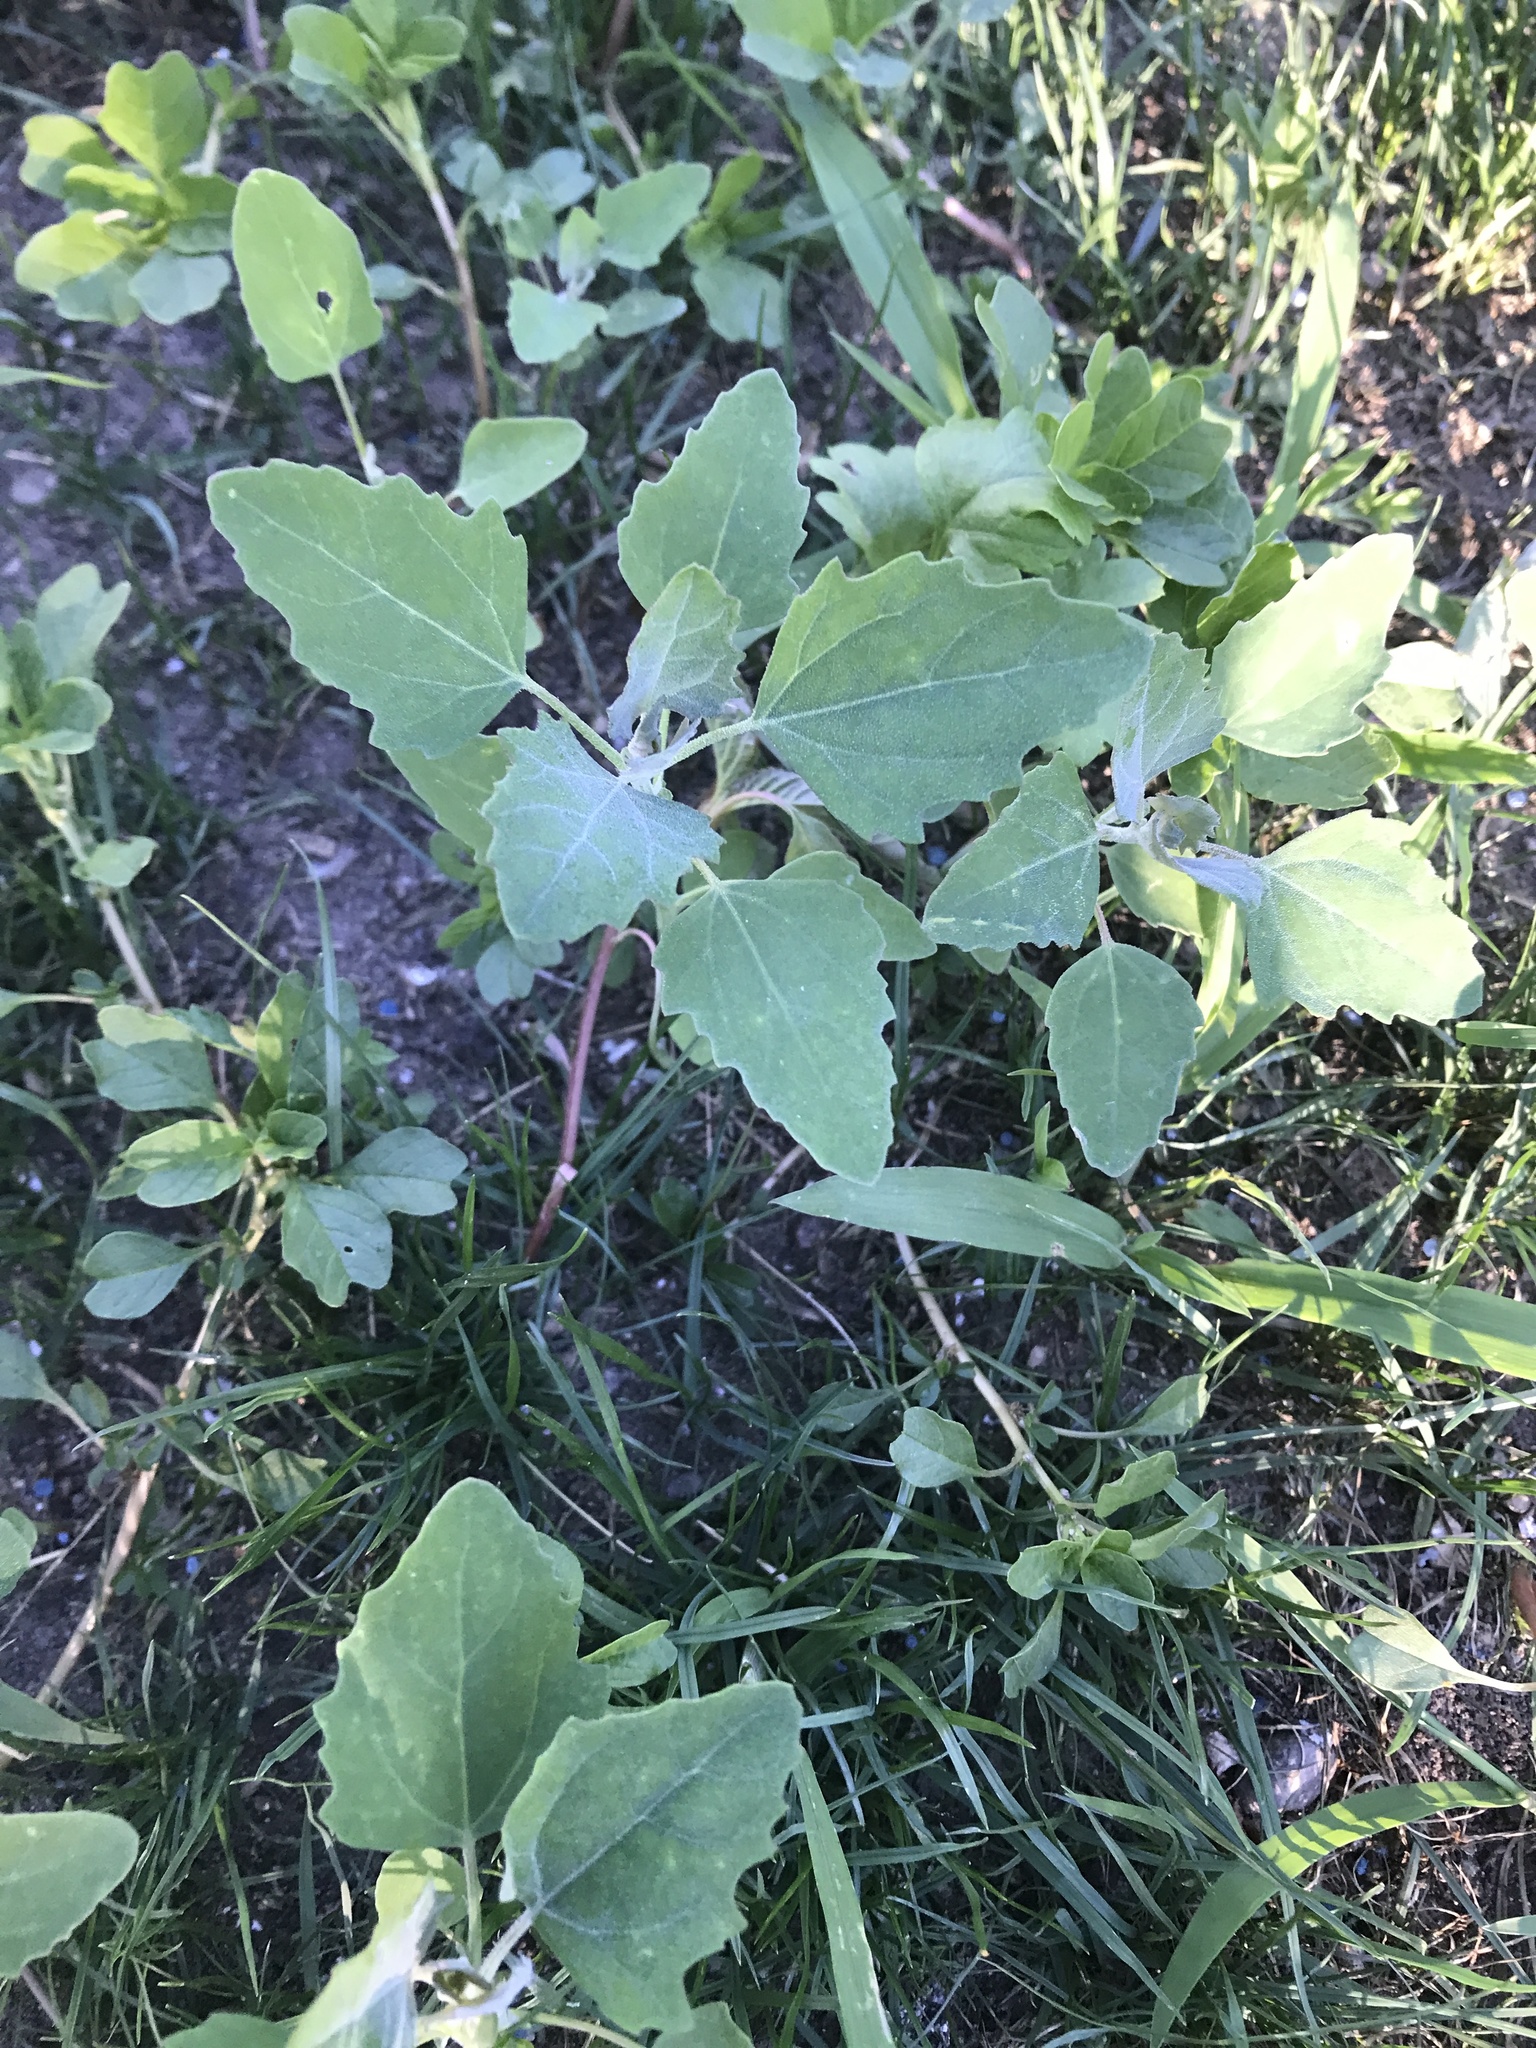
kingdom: Plantae
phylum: Tracheophyta
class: Magnoliopsida
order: Caryophyllales
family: Amaranthaceae
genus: Chenopodium
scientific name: Chenopodium album
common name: Fat-hen
